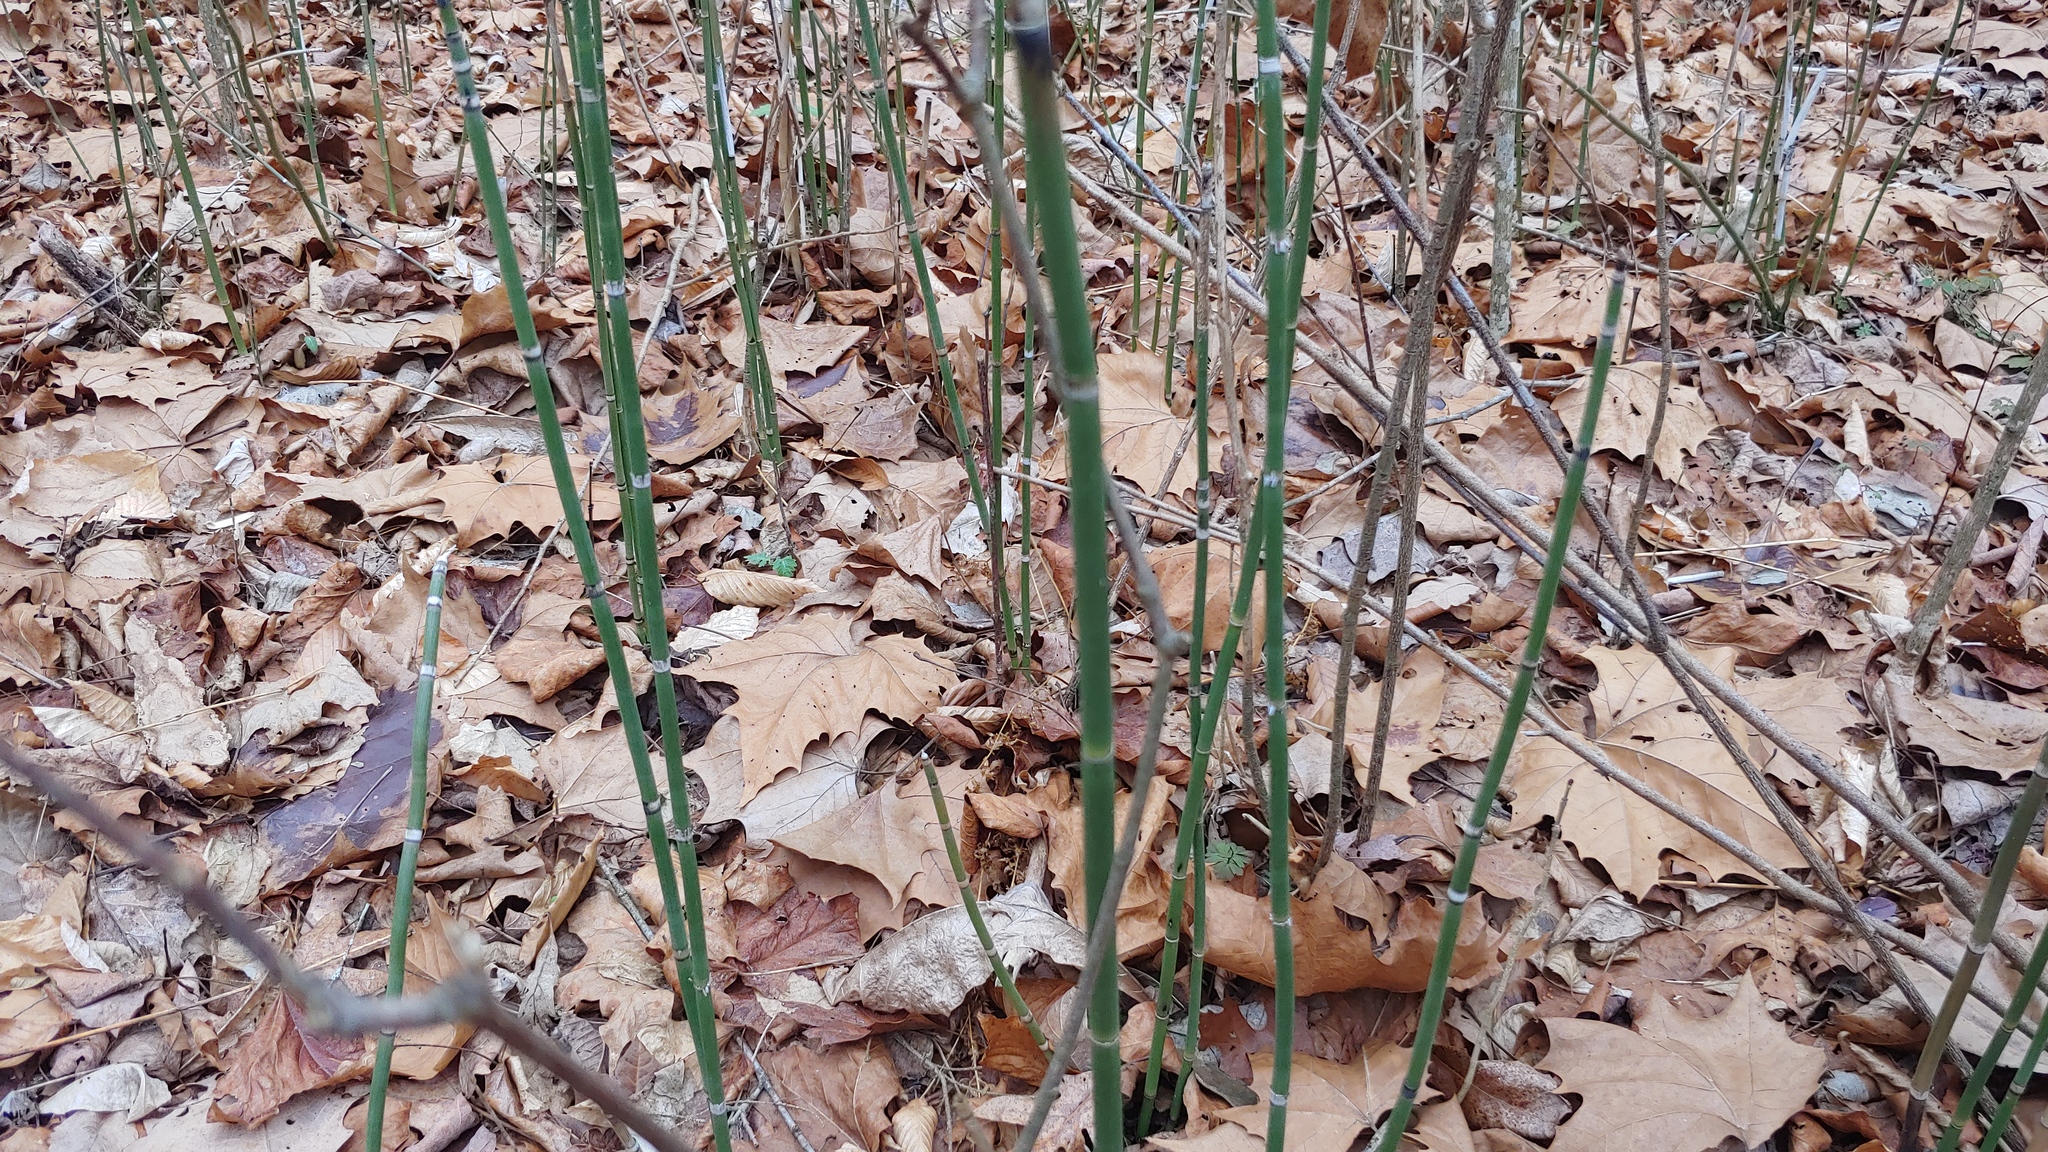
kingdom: Plantae
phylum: Tracheophyta
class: Polypodiopsida
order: Equisetales
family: Equisetaceae
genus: Equisetum
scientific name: Equisetum praealtum
